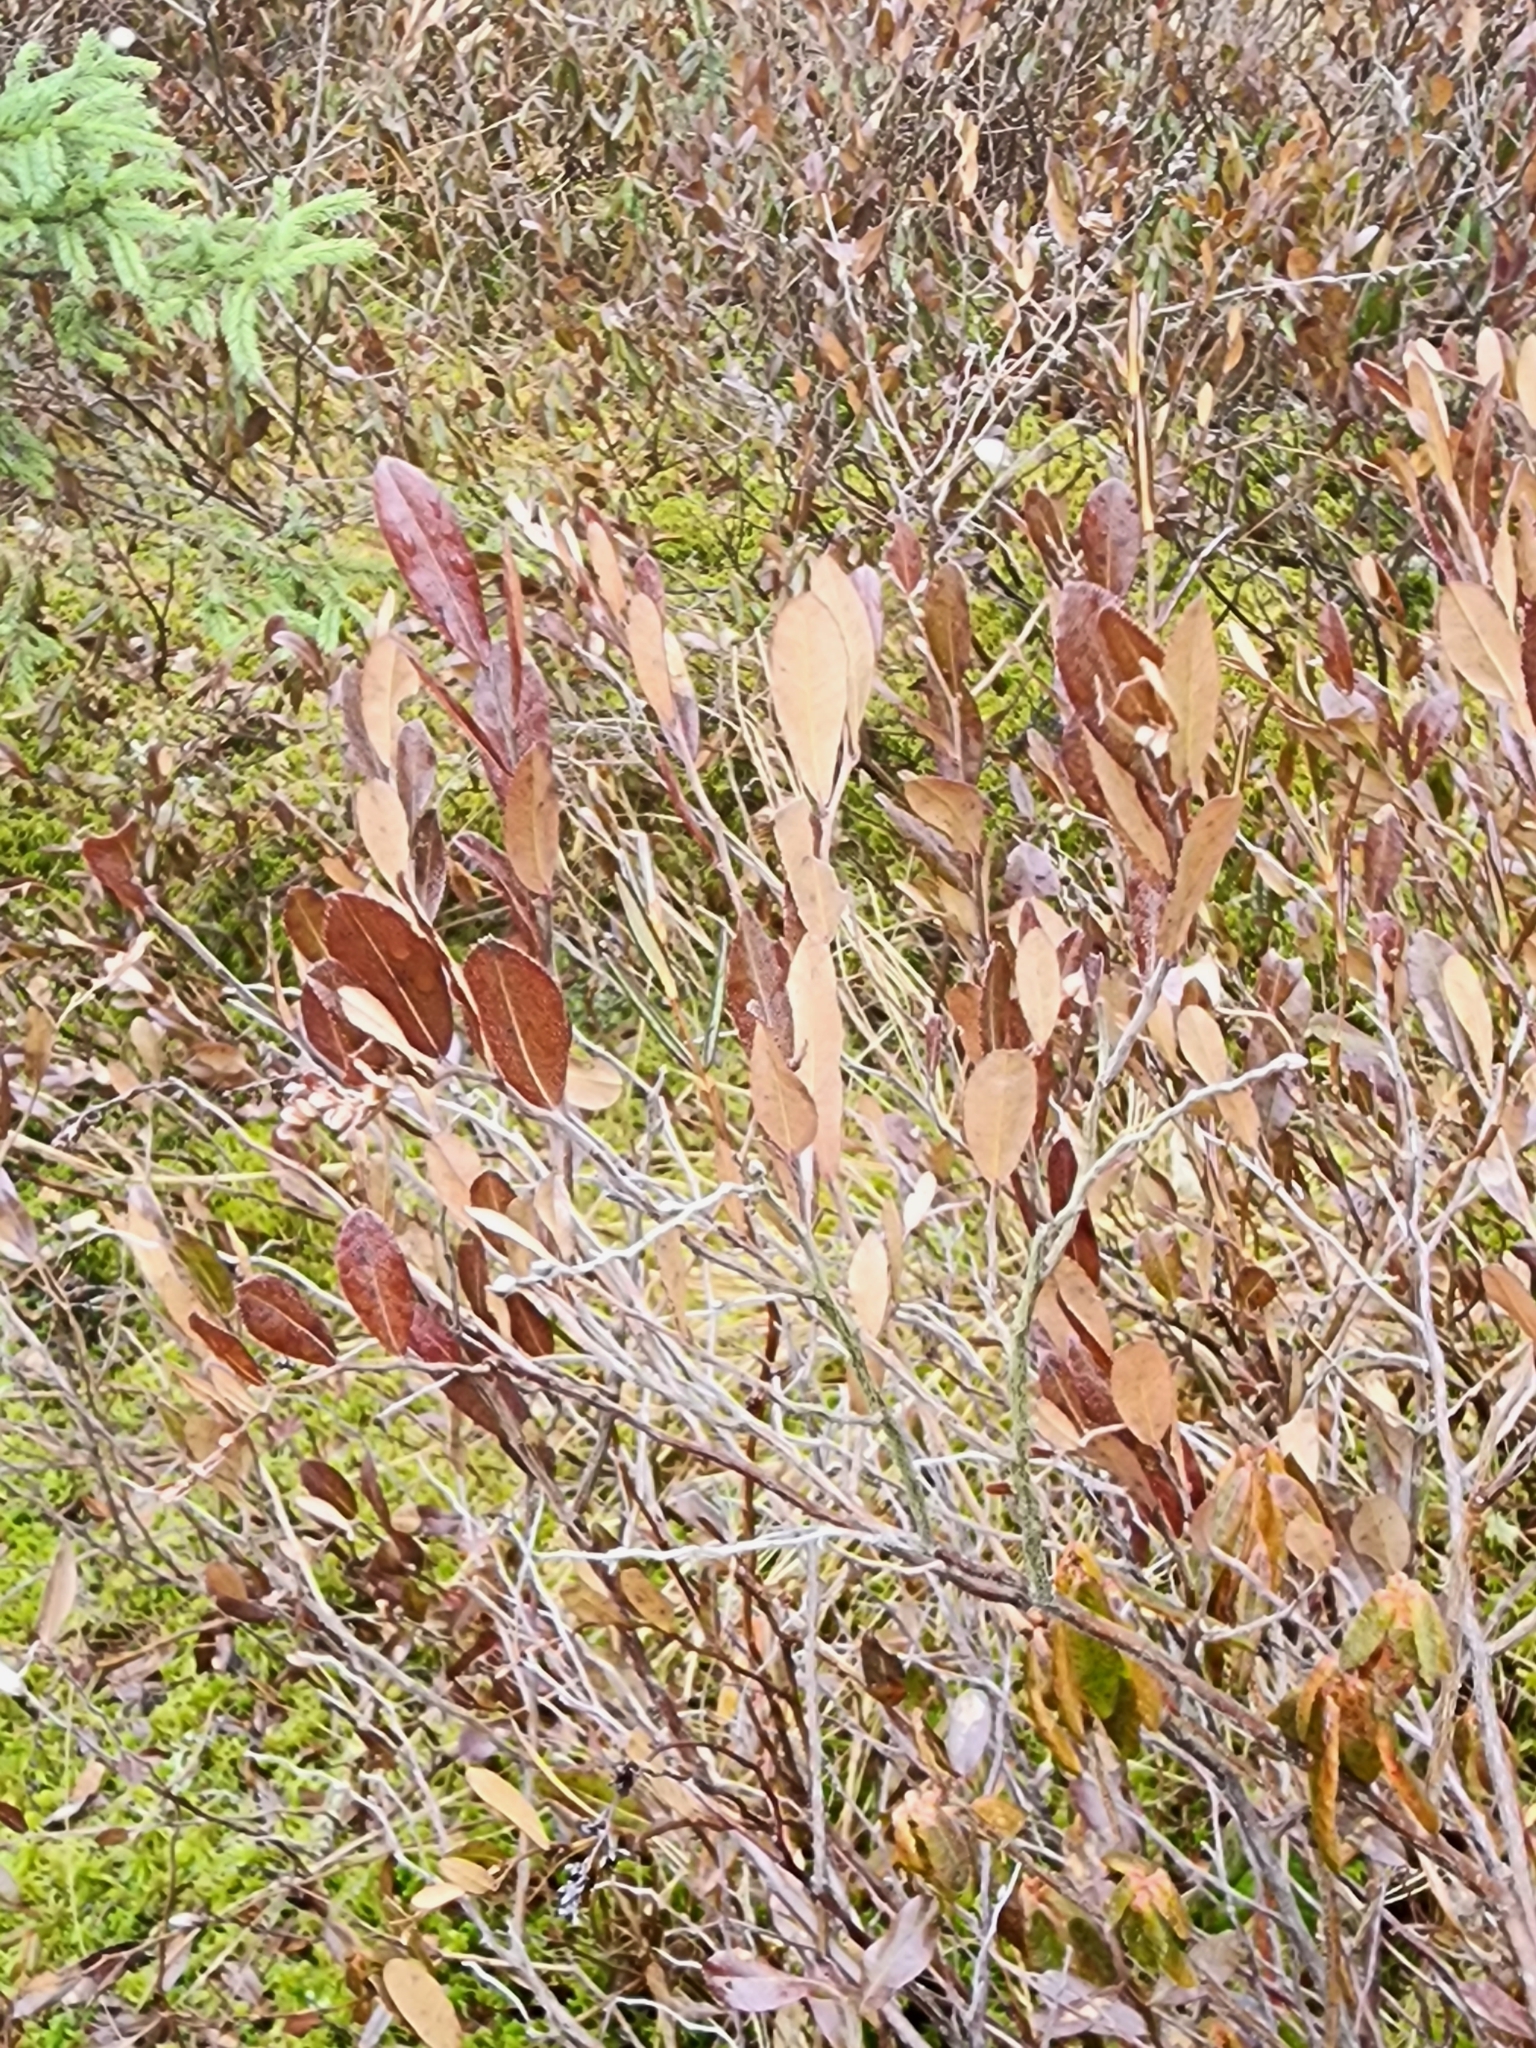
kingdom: Plantae
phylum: Tracheophyta
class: Magnoliopsida
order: Ericales
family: Ericaceae
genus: Chamaedaphne
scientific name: Chamaedaphne calyculata
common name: Leatherleaf
